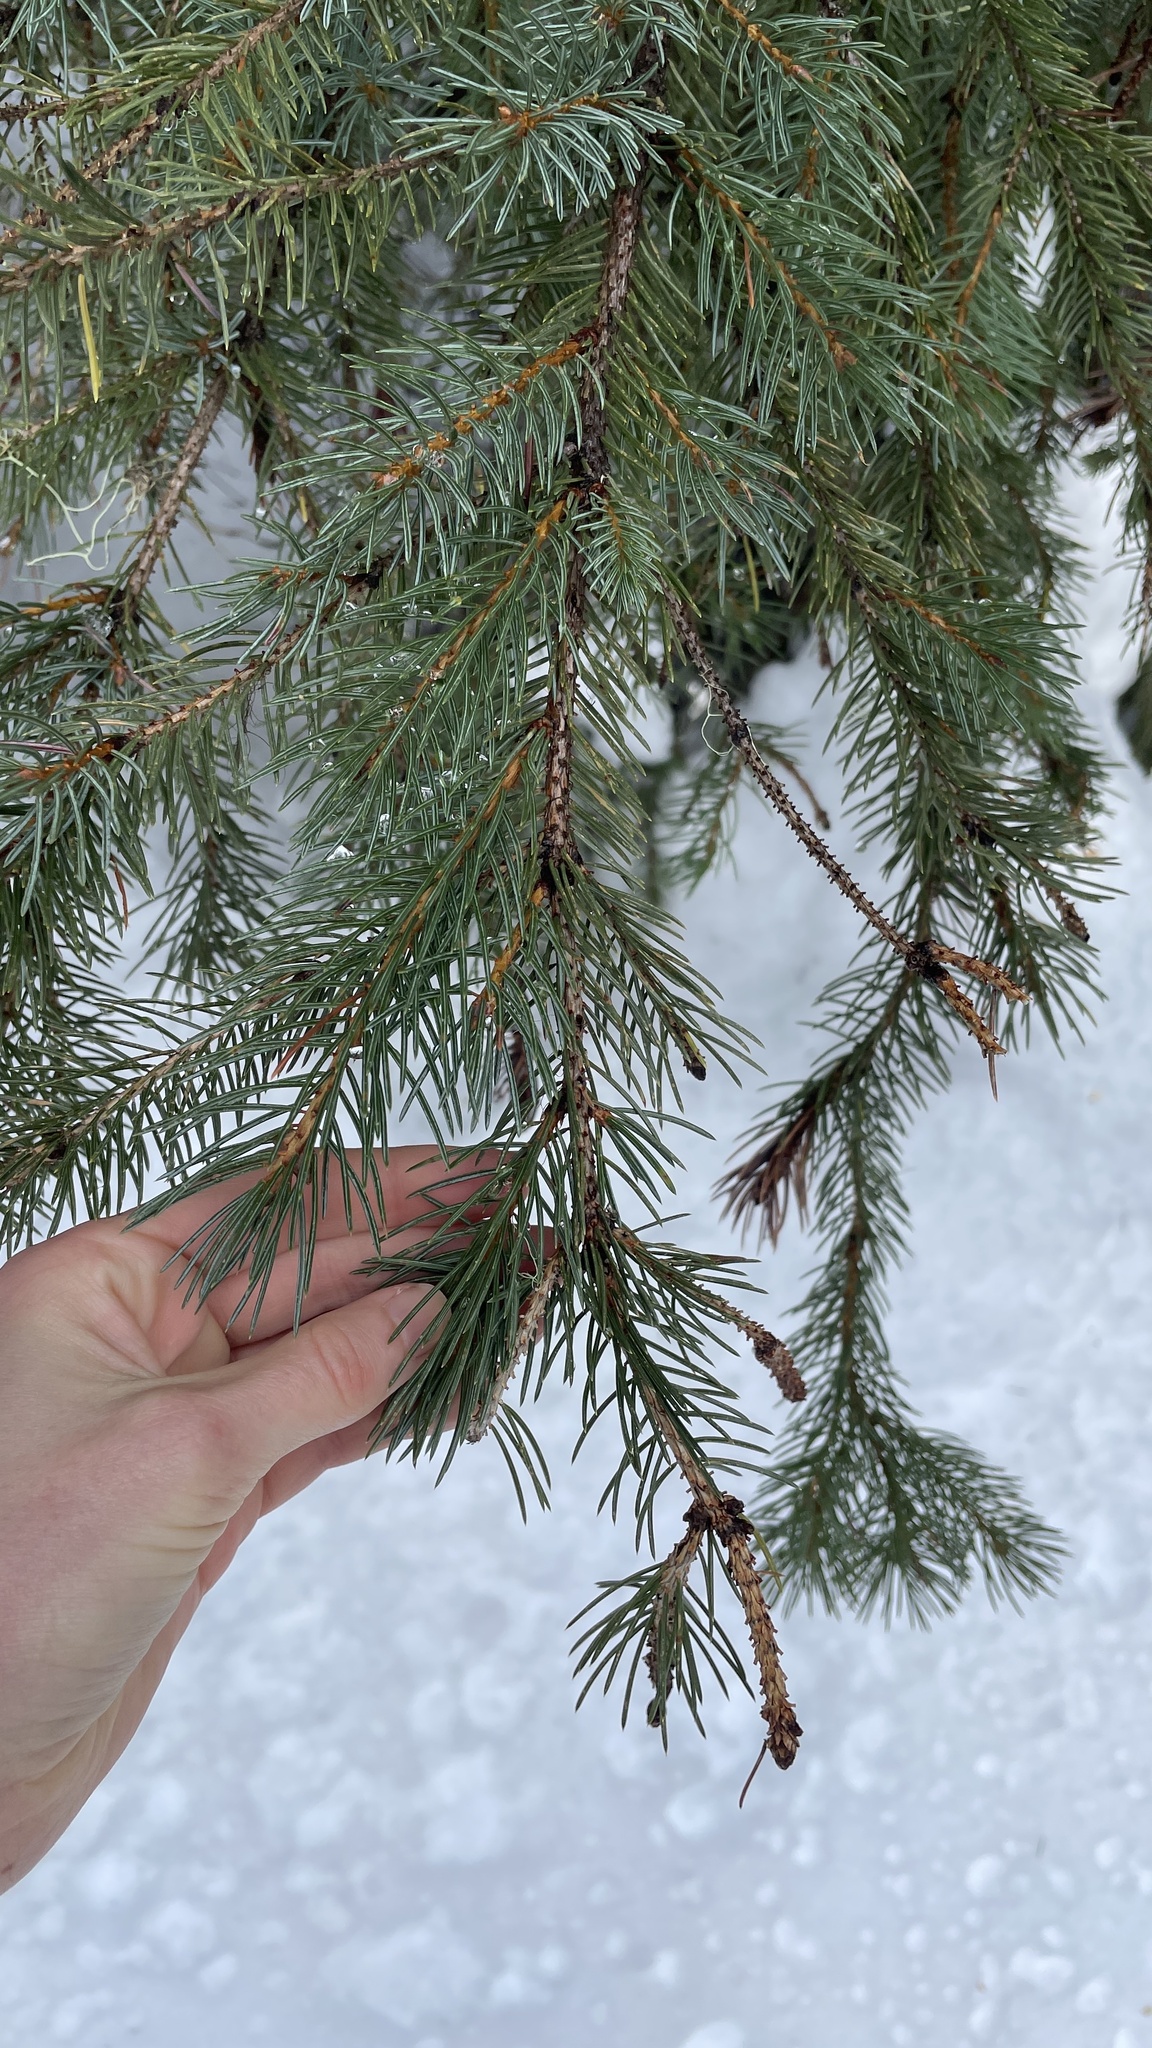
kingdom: Plantae
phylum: Tracheophyta
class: Pinopsida
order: Pinales
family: Pinaceae
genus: Picea
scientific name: Picea engelmannii
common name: Engelmann spruce
